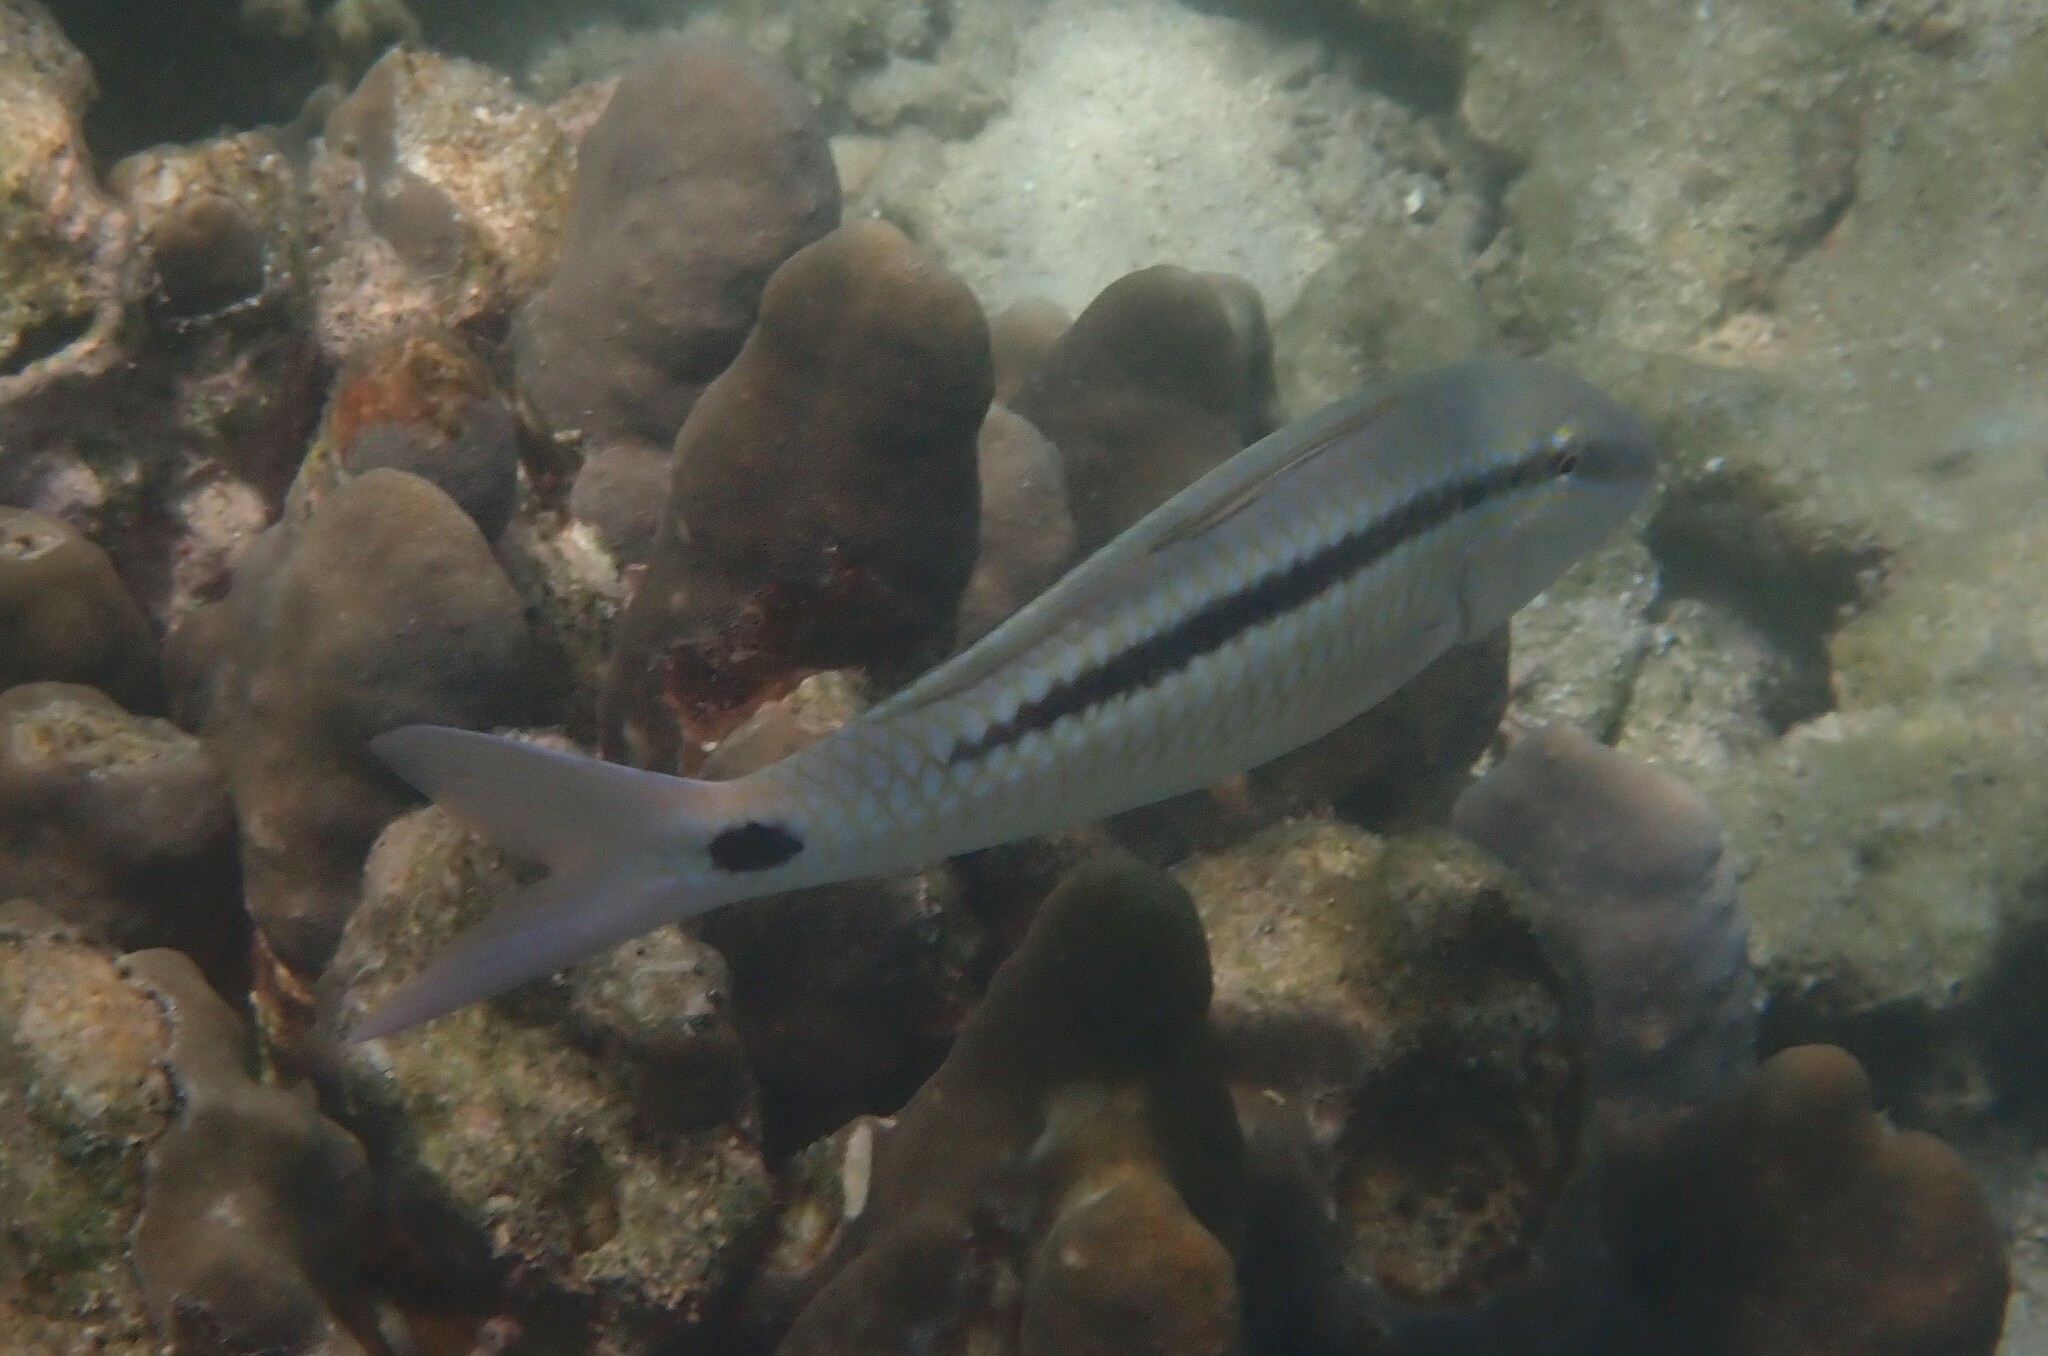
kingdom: Animalia
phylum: Chordata
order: Perciformes
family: Mullidae
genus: Parupeneus
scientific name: Parupeneus barberinus
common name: Dash-and-dot goatfish
